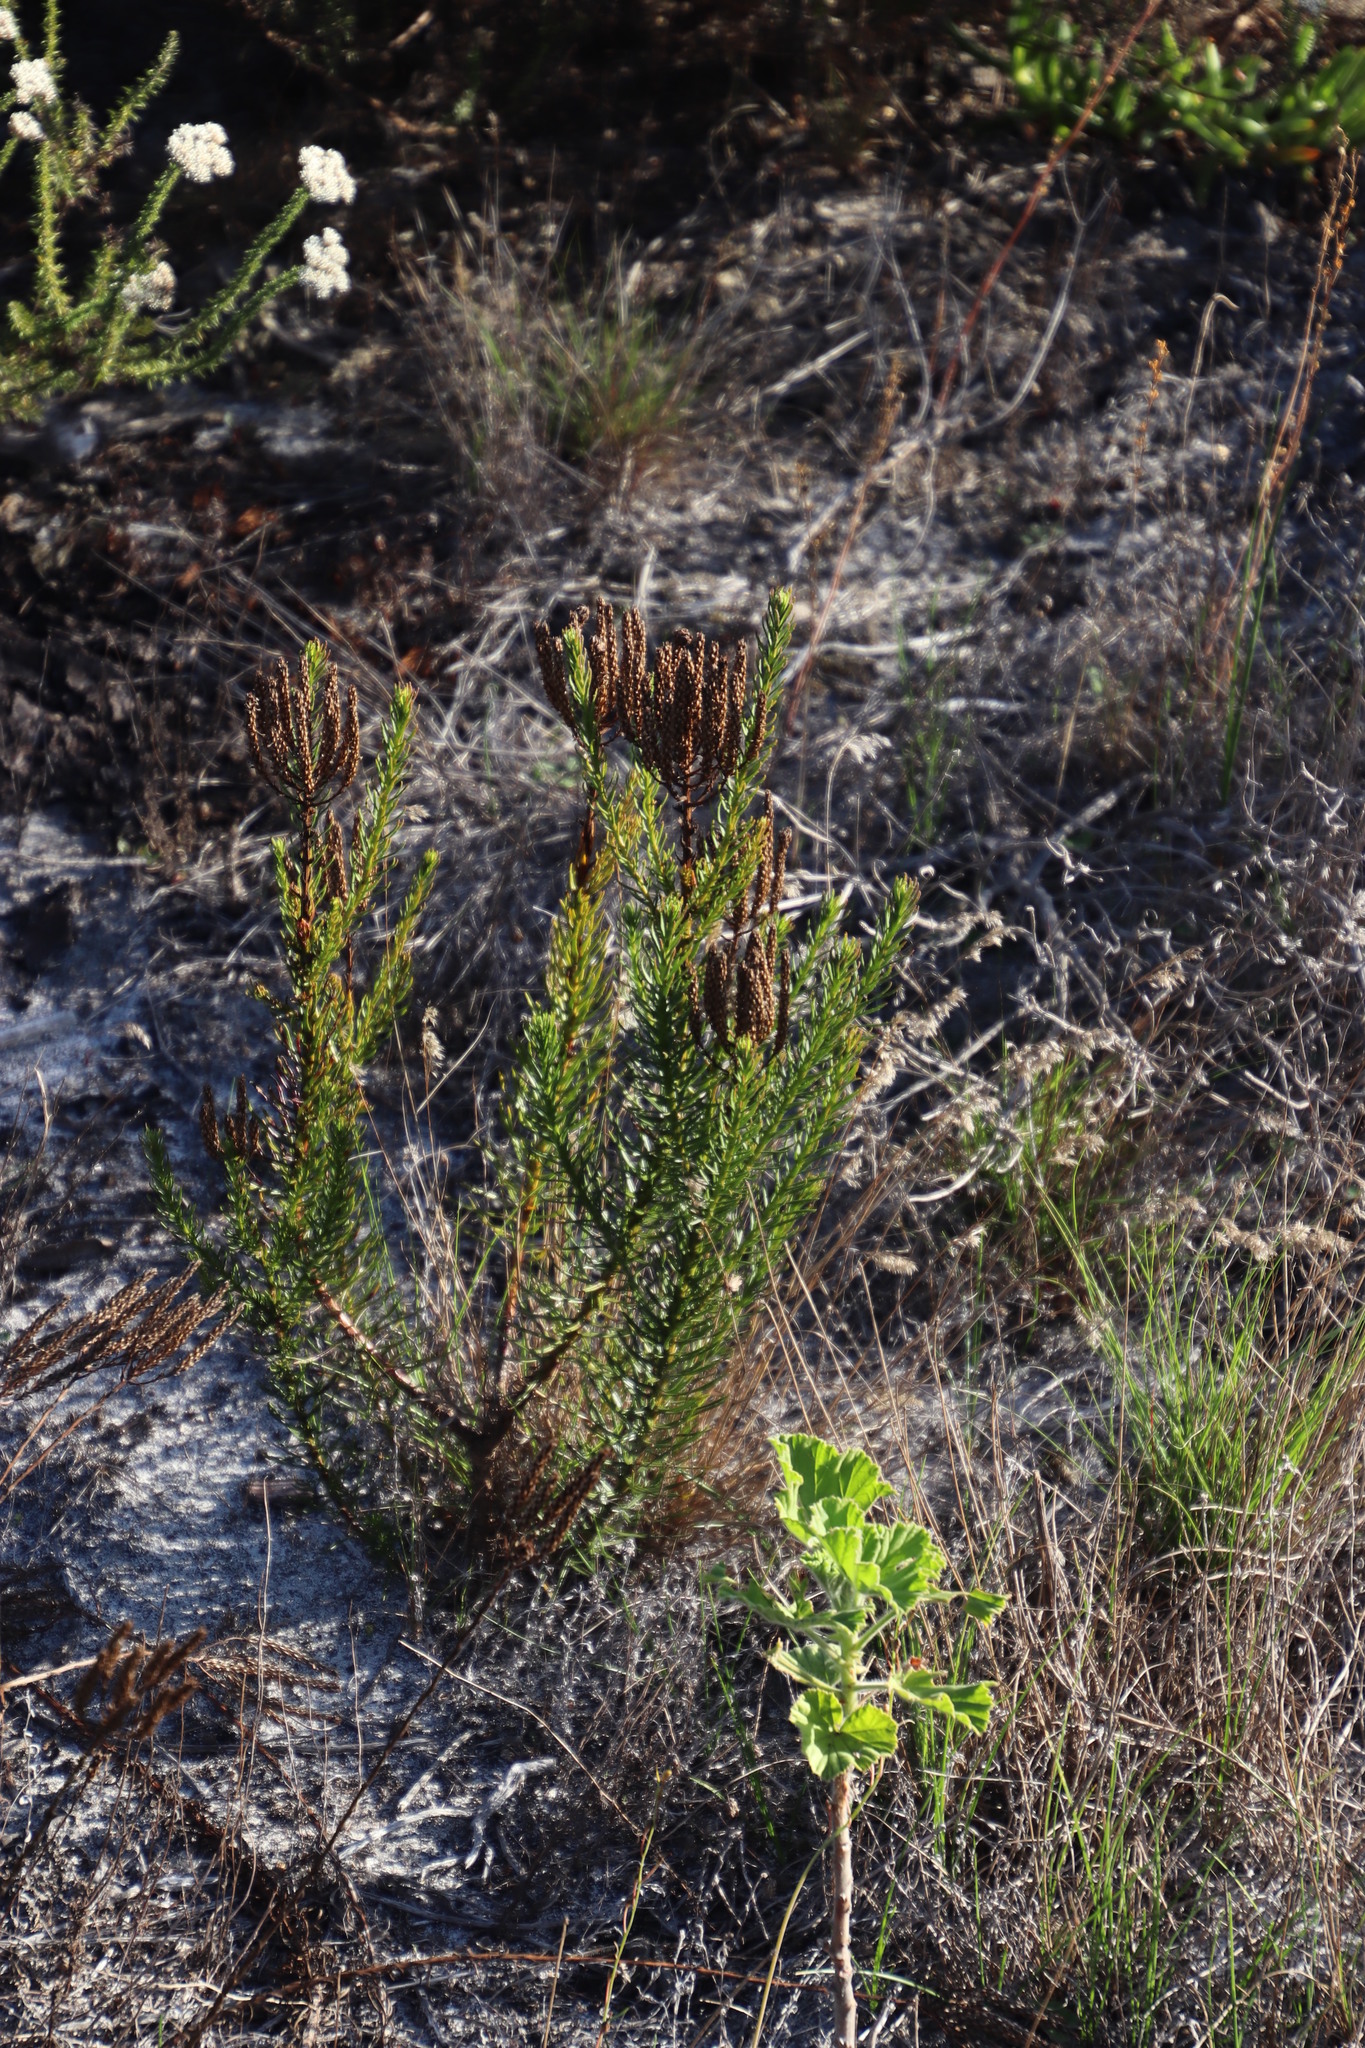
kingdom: Plantae
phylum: Tracheophyta
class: Magnoliopsida
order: Lamiales
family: Scrophulariaceae
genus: Pseudoselago
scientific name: Pseudoselago spuria
